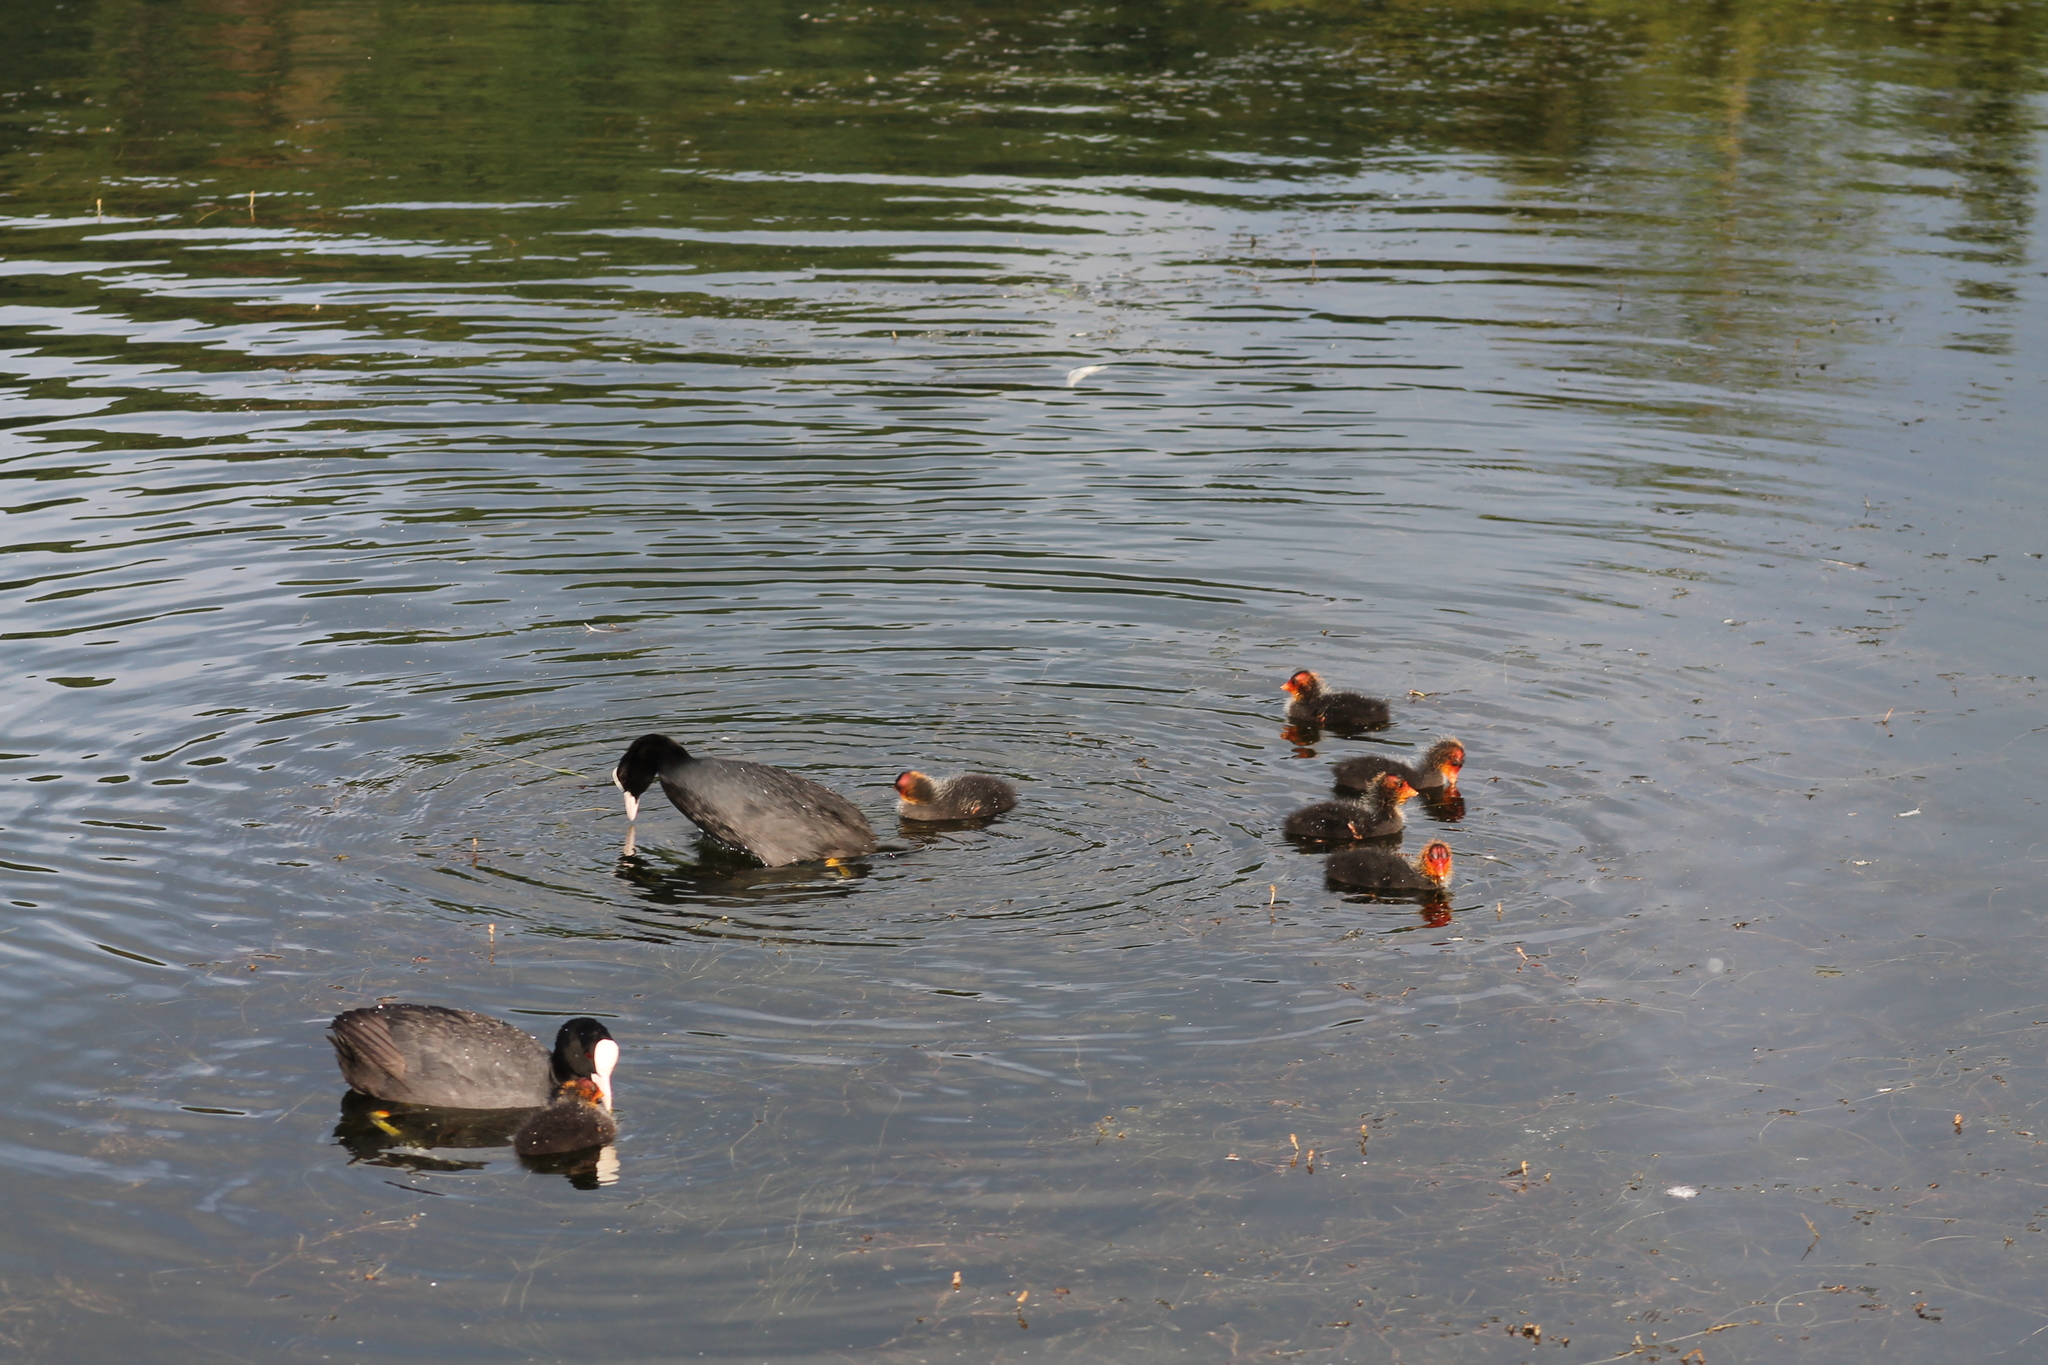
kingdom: Animalia
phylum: Chordata
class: Aves
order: Gruiformes
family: Rallidae
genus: Fulica
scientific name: Fulica atra
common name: Eurasian coot
